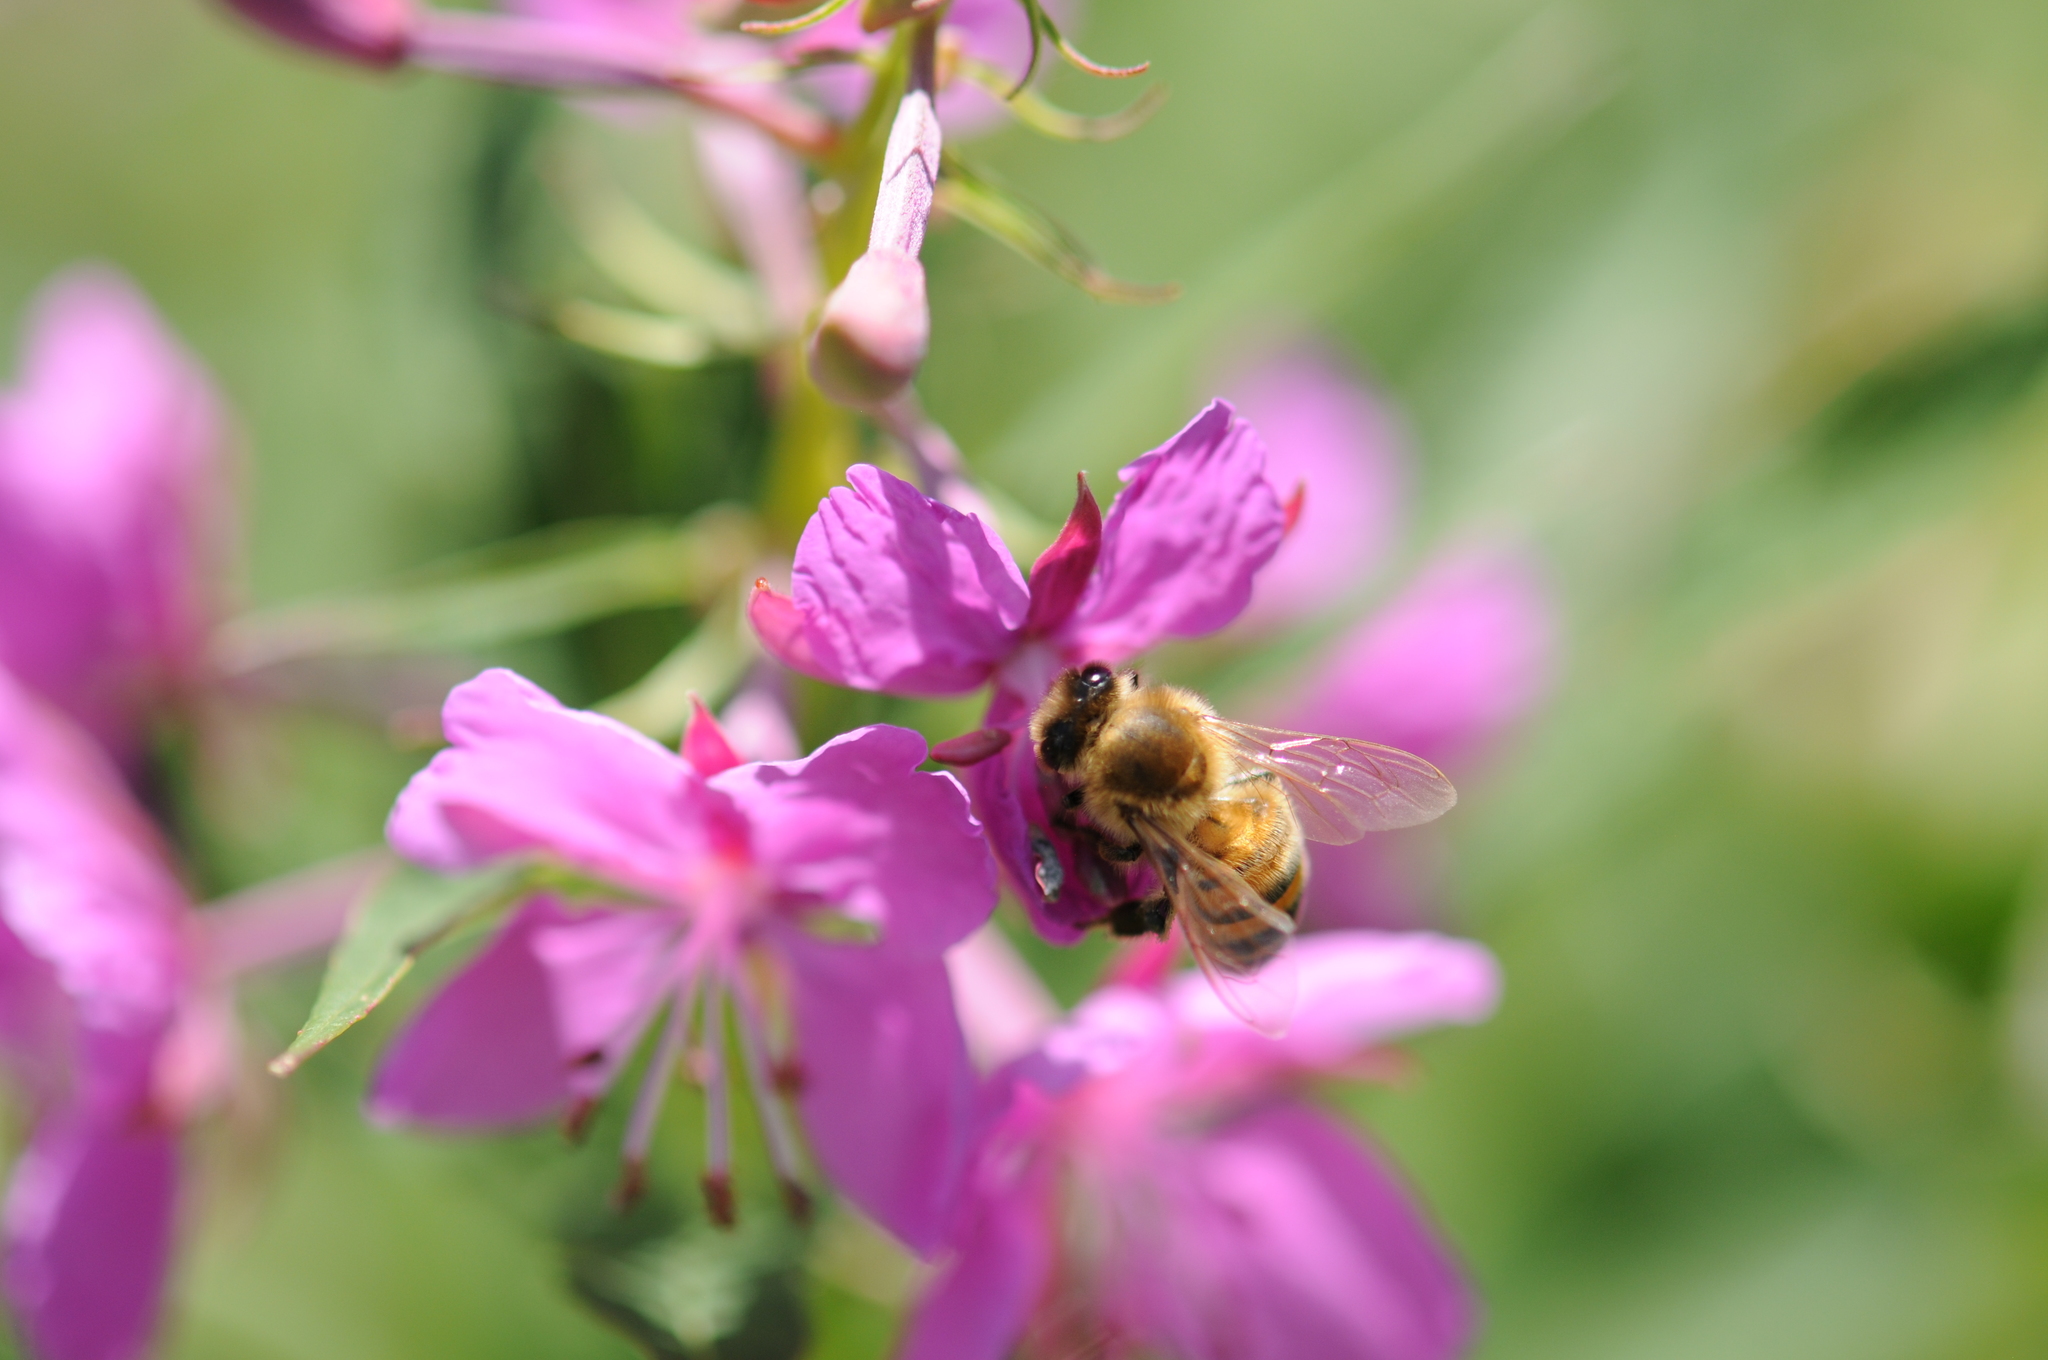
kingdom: Animalia
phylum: Arthropoda
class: Insecta
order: Hymenoptera
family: Apidae
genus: Apis
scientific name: Apis mellifera
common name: Honey bee
